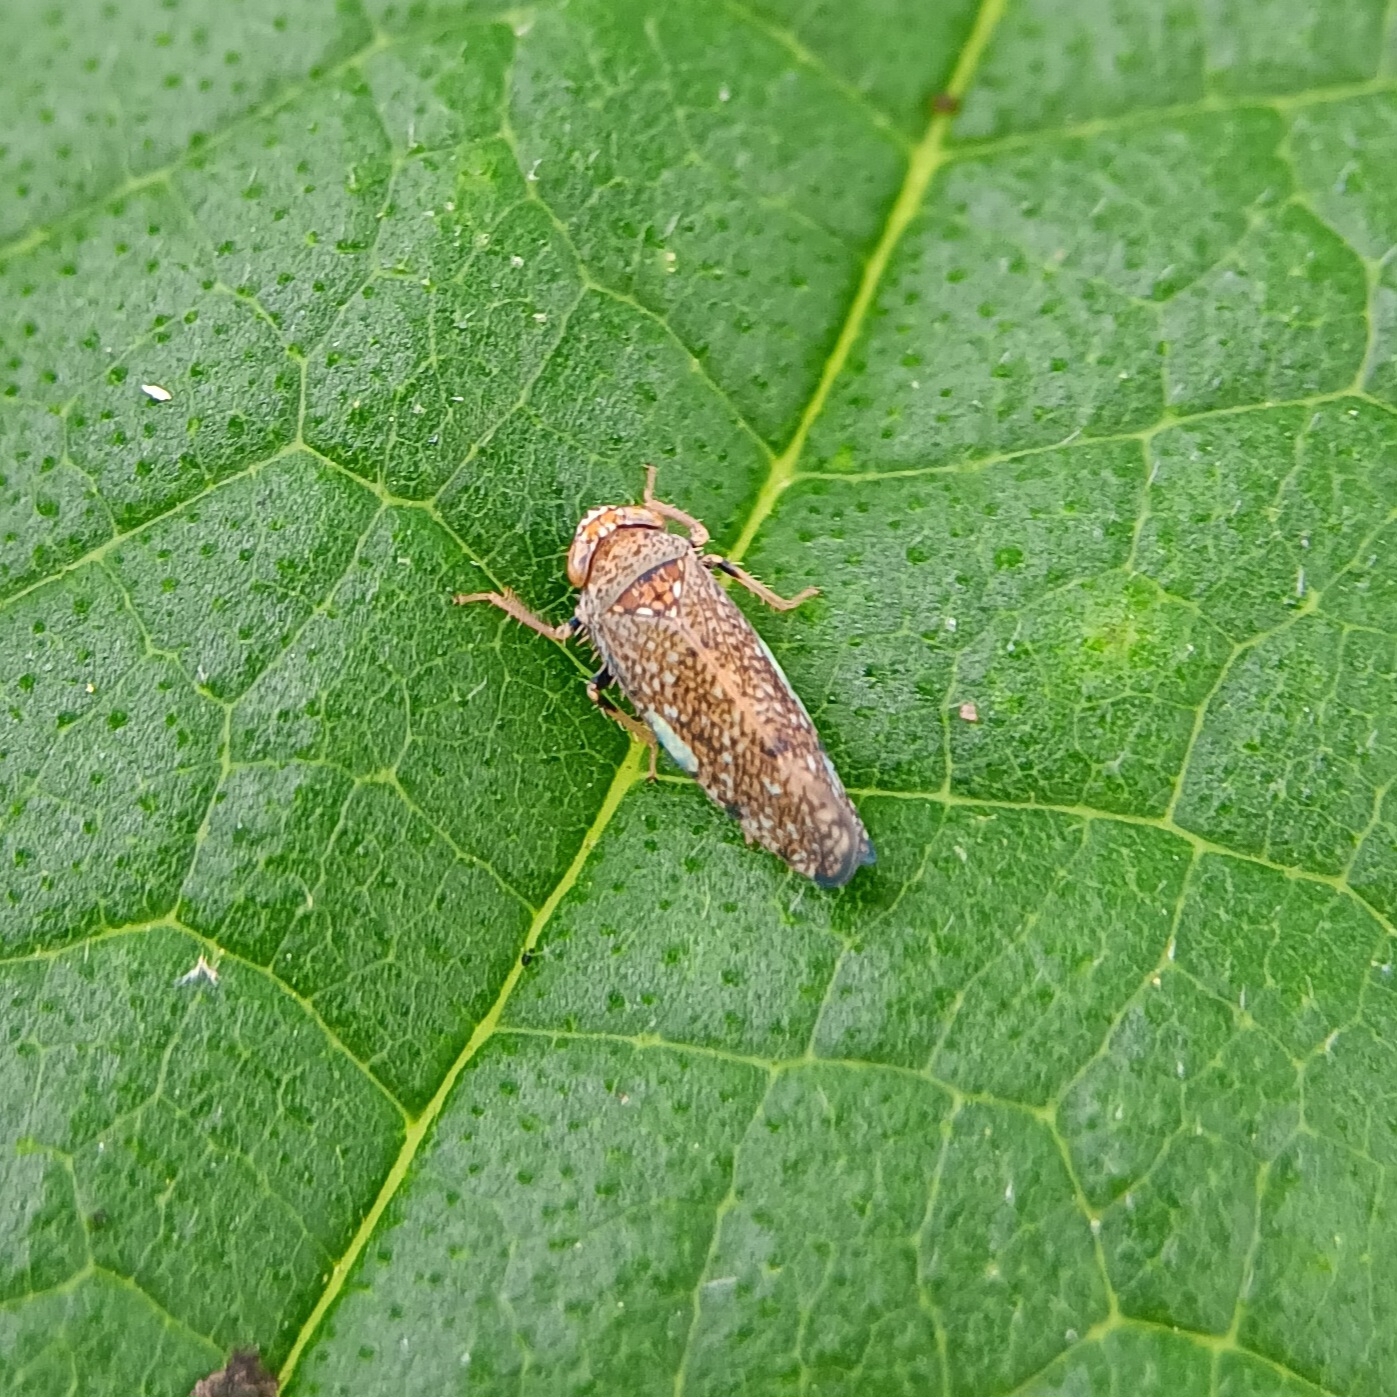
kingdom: Animalia
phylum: Arthropoda
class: Insecta
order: Hemiptera
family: Cicadellidae
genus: Orientus
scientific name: Orientus ishidae
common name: Japanese leafhopper
